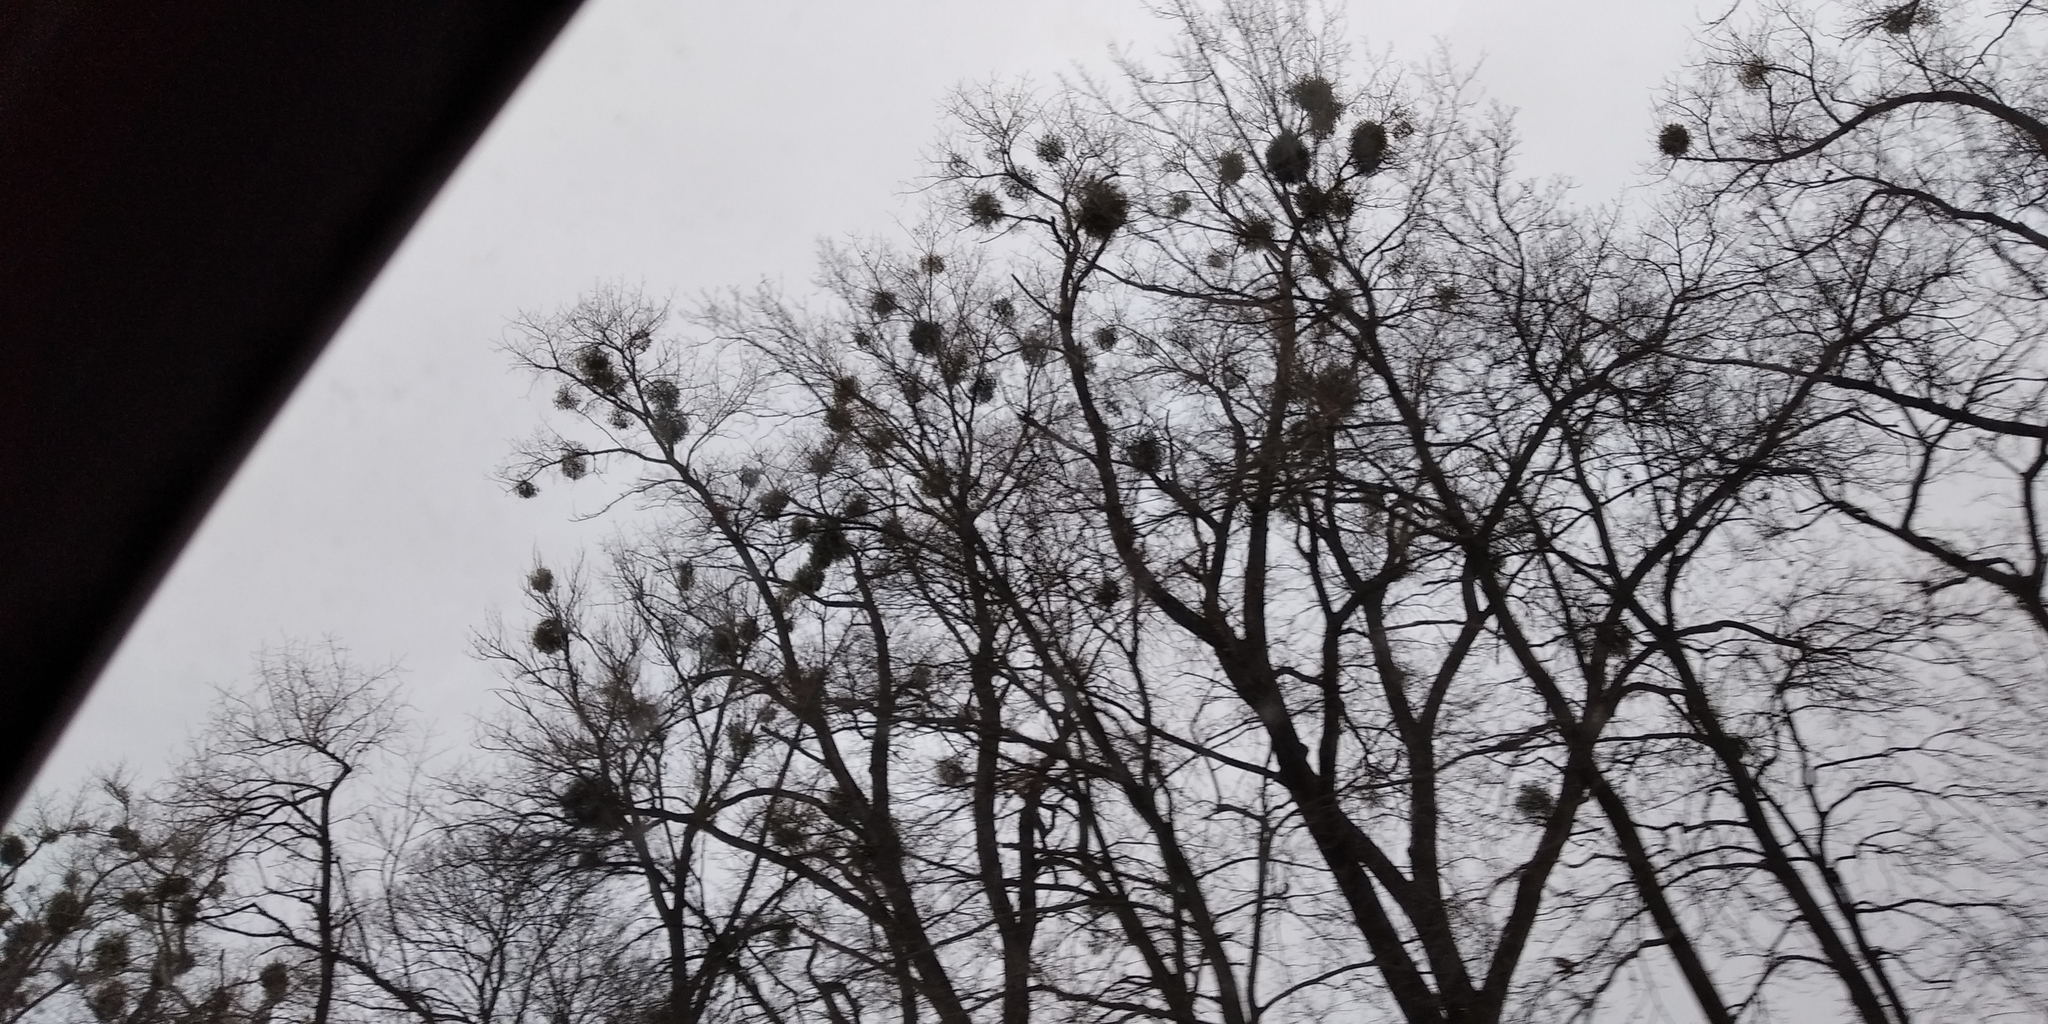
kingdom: Plantae
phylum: Tracheophyta
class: Magnoliopsida
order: Santalales
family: Viscaceae
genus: Viscum
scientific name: Viscum album
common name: Mistletoe
